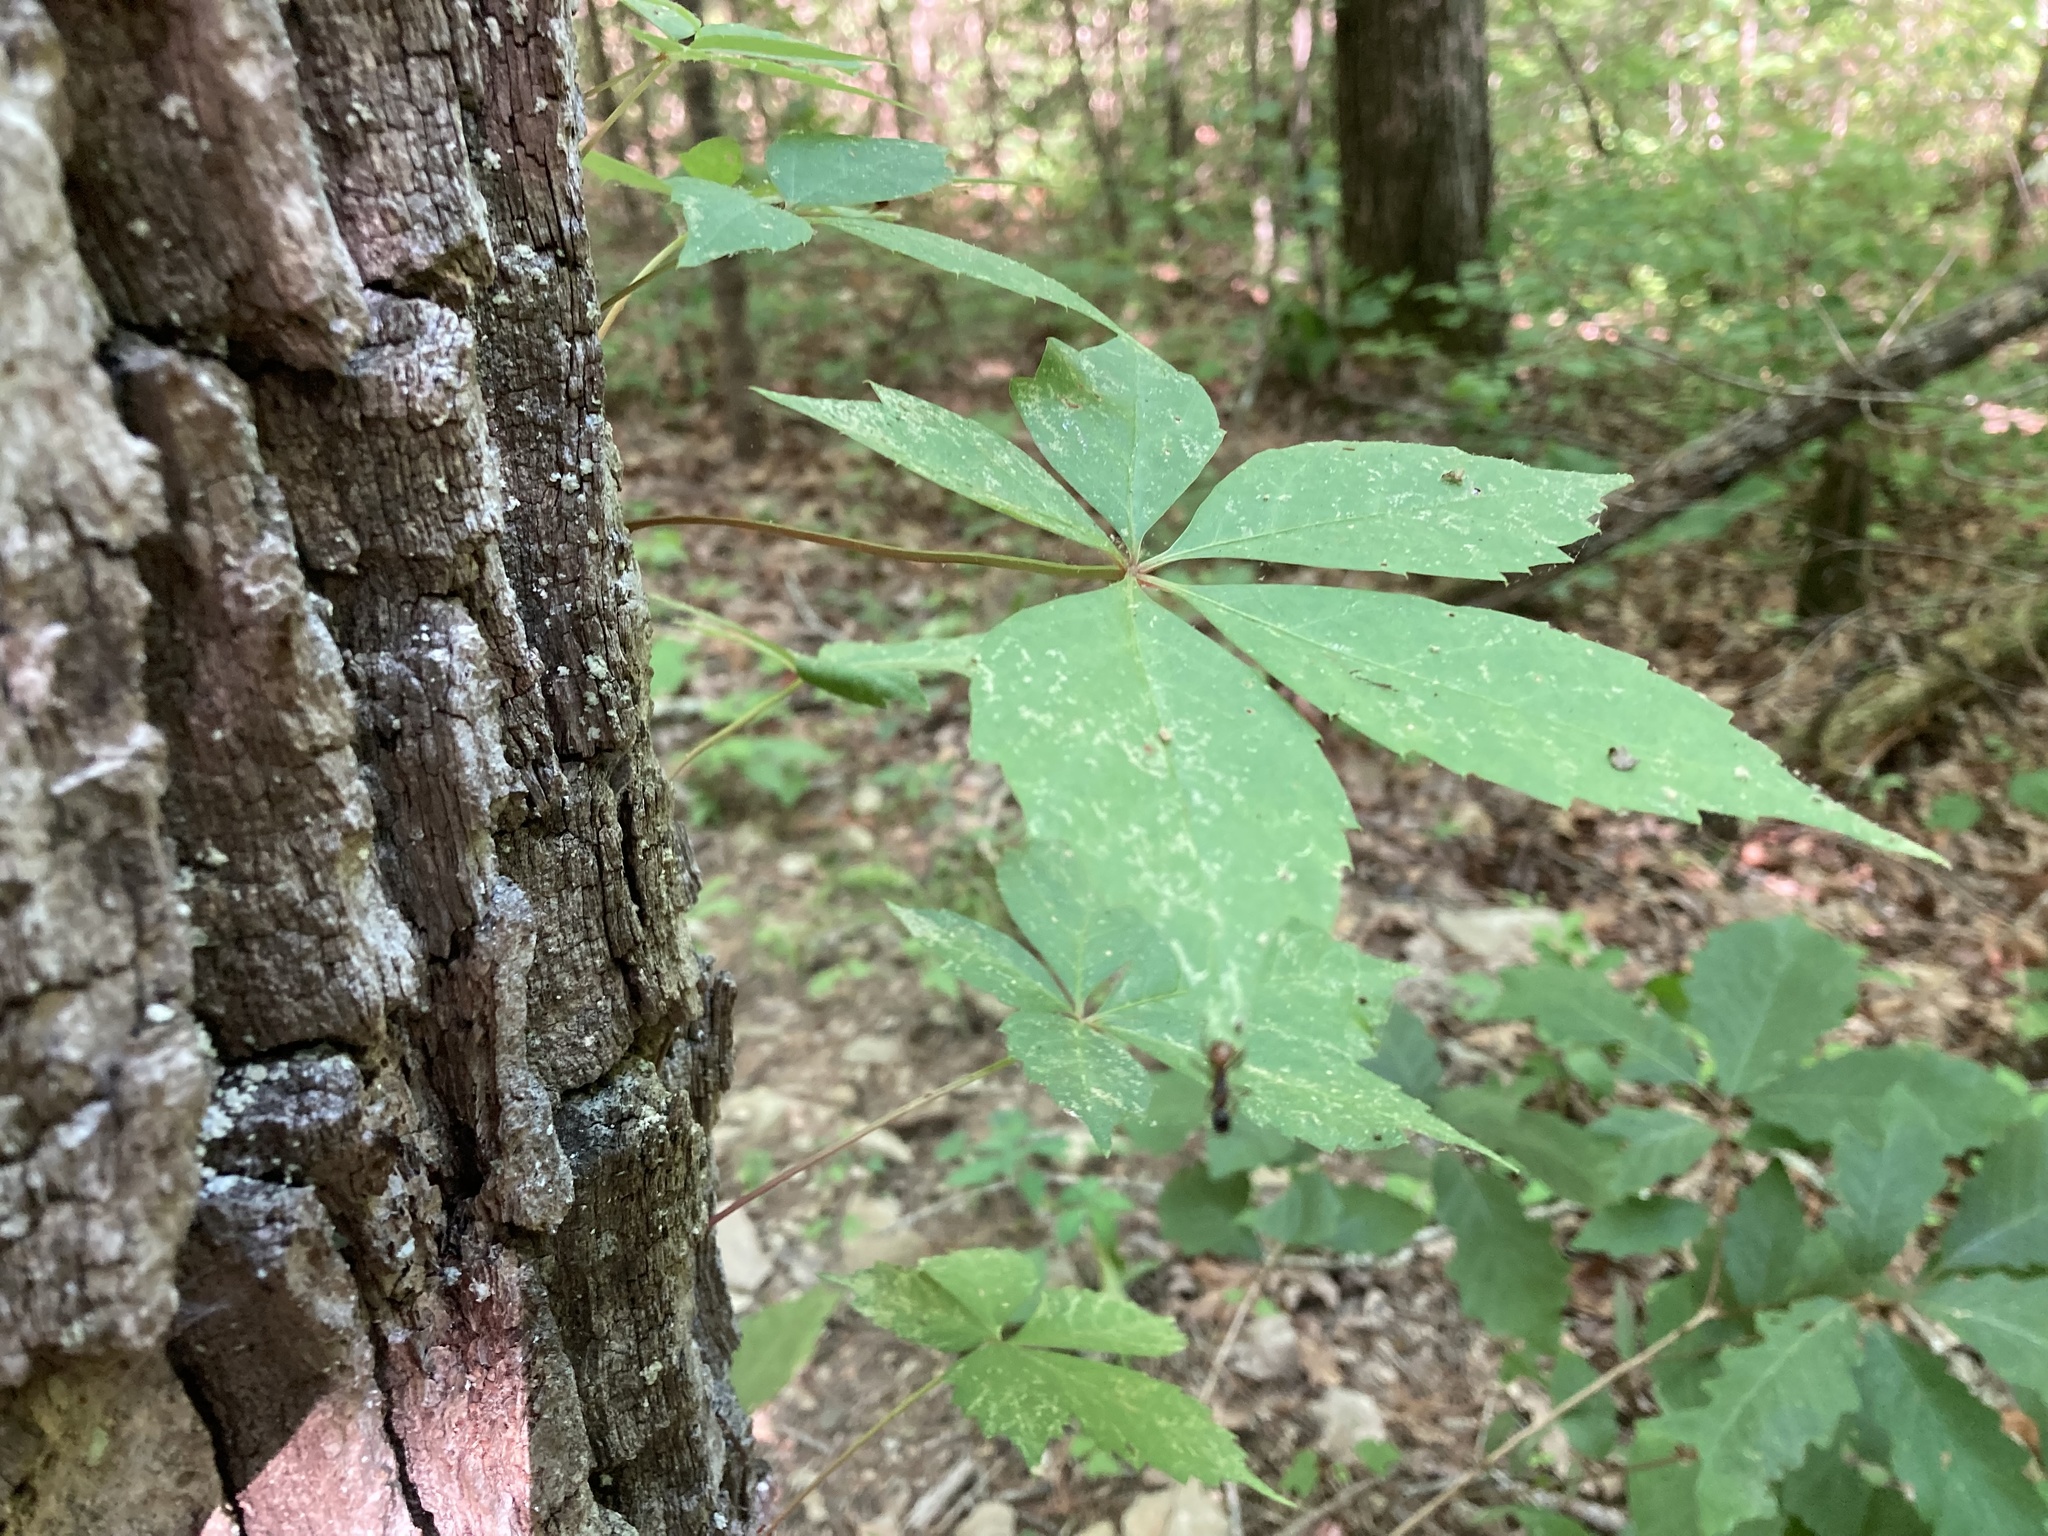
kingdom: Plantae
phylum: Tracheophyta
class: Magnoliopsida
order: Vitales
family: Vitaceae
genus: Parthenocissus
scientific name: Parthenocissus quinquefolia
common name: Virginia-creeper
